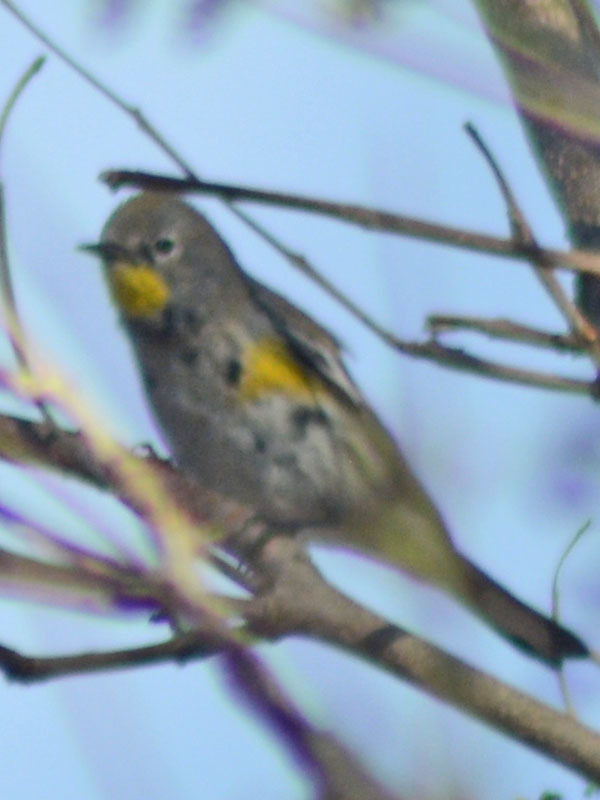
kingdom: Animalia
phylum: Chordata
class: Aves
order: Passeriformes
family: Parulidae
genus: Setophaga
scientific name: Setophaga auduboni
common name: Audubon's warbler
